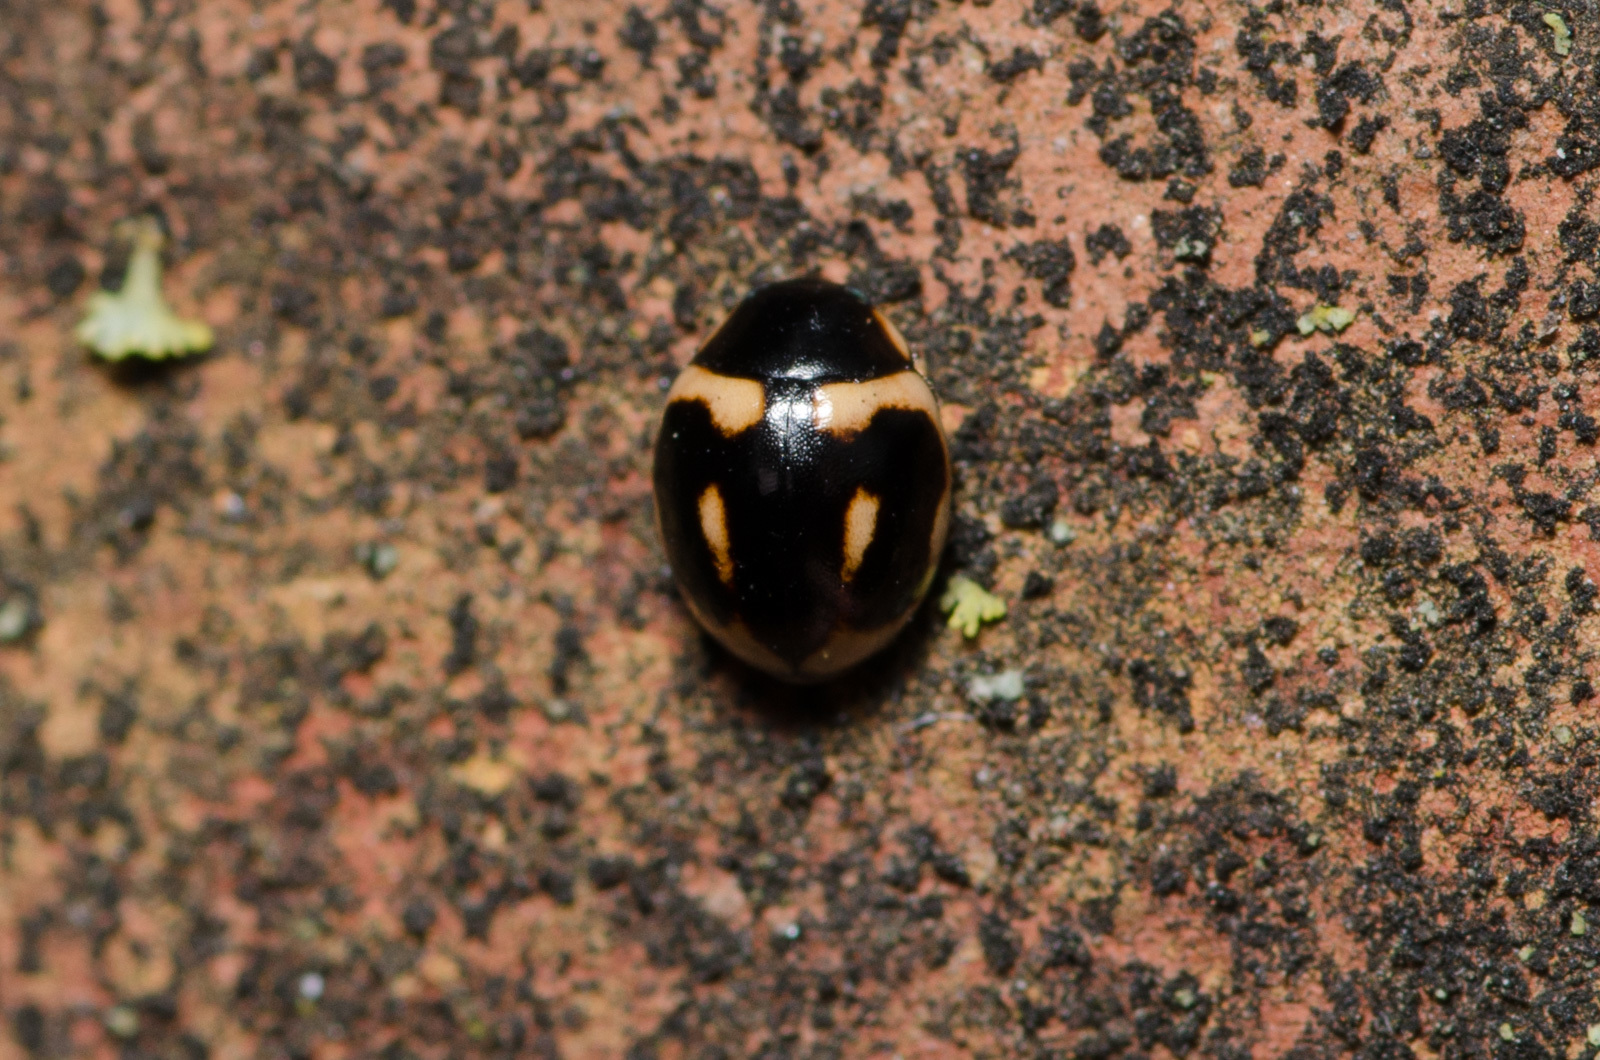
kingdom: Animalia
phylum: Arthropoda
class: Insecta
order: Coleoptera
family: Coccinellidae
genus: Hyperaspis
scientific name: Hyperaspis trifurcata
